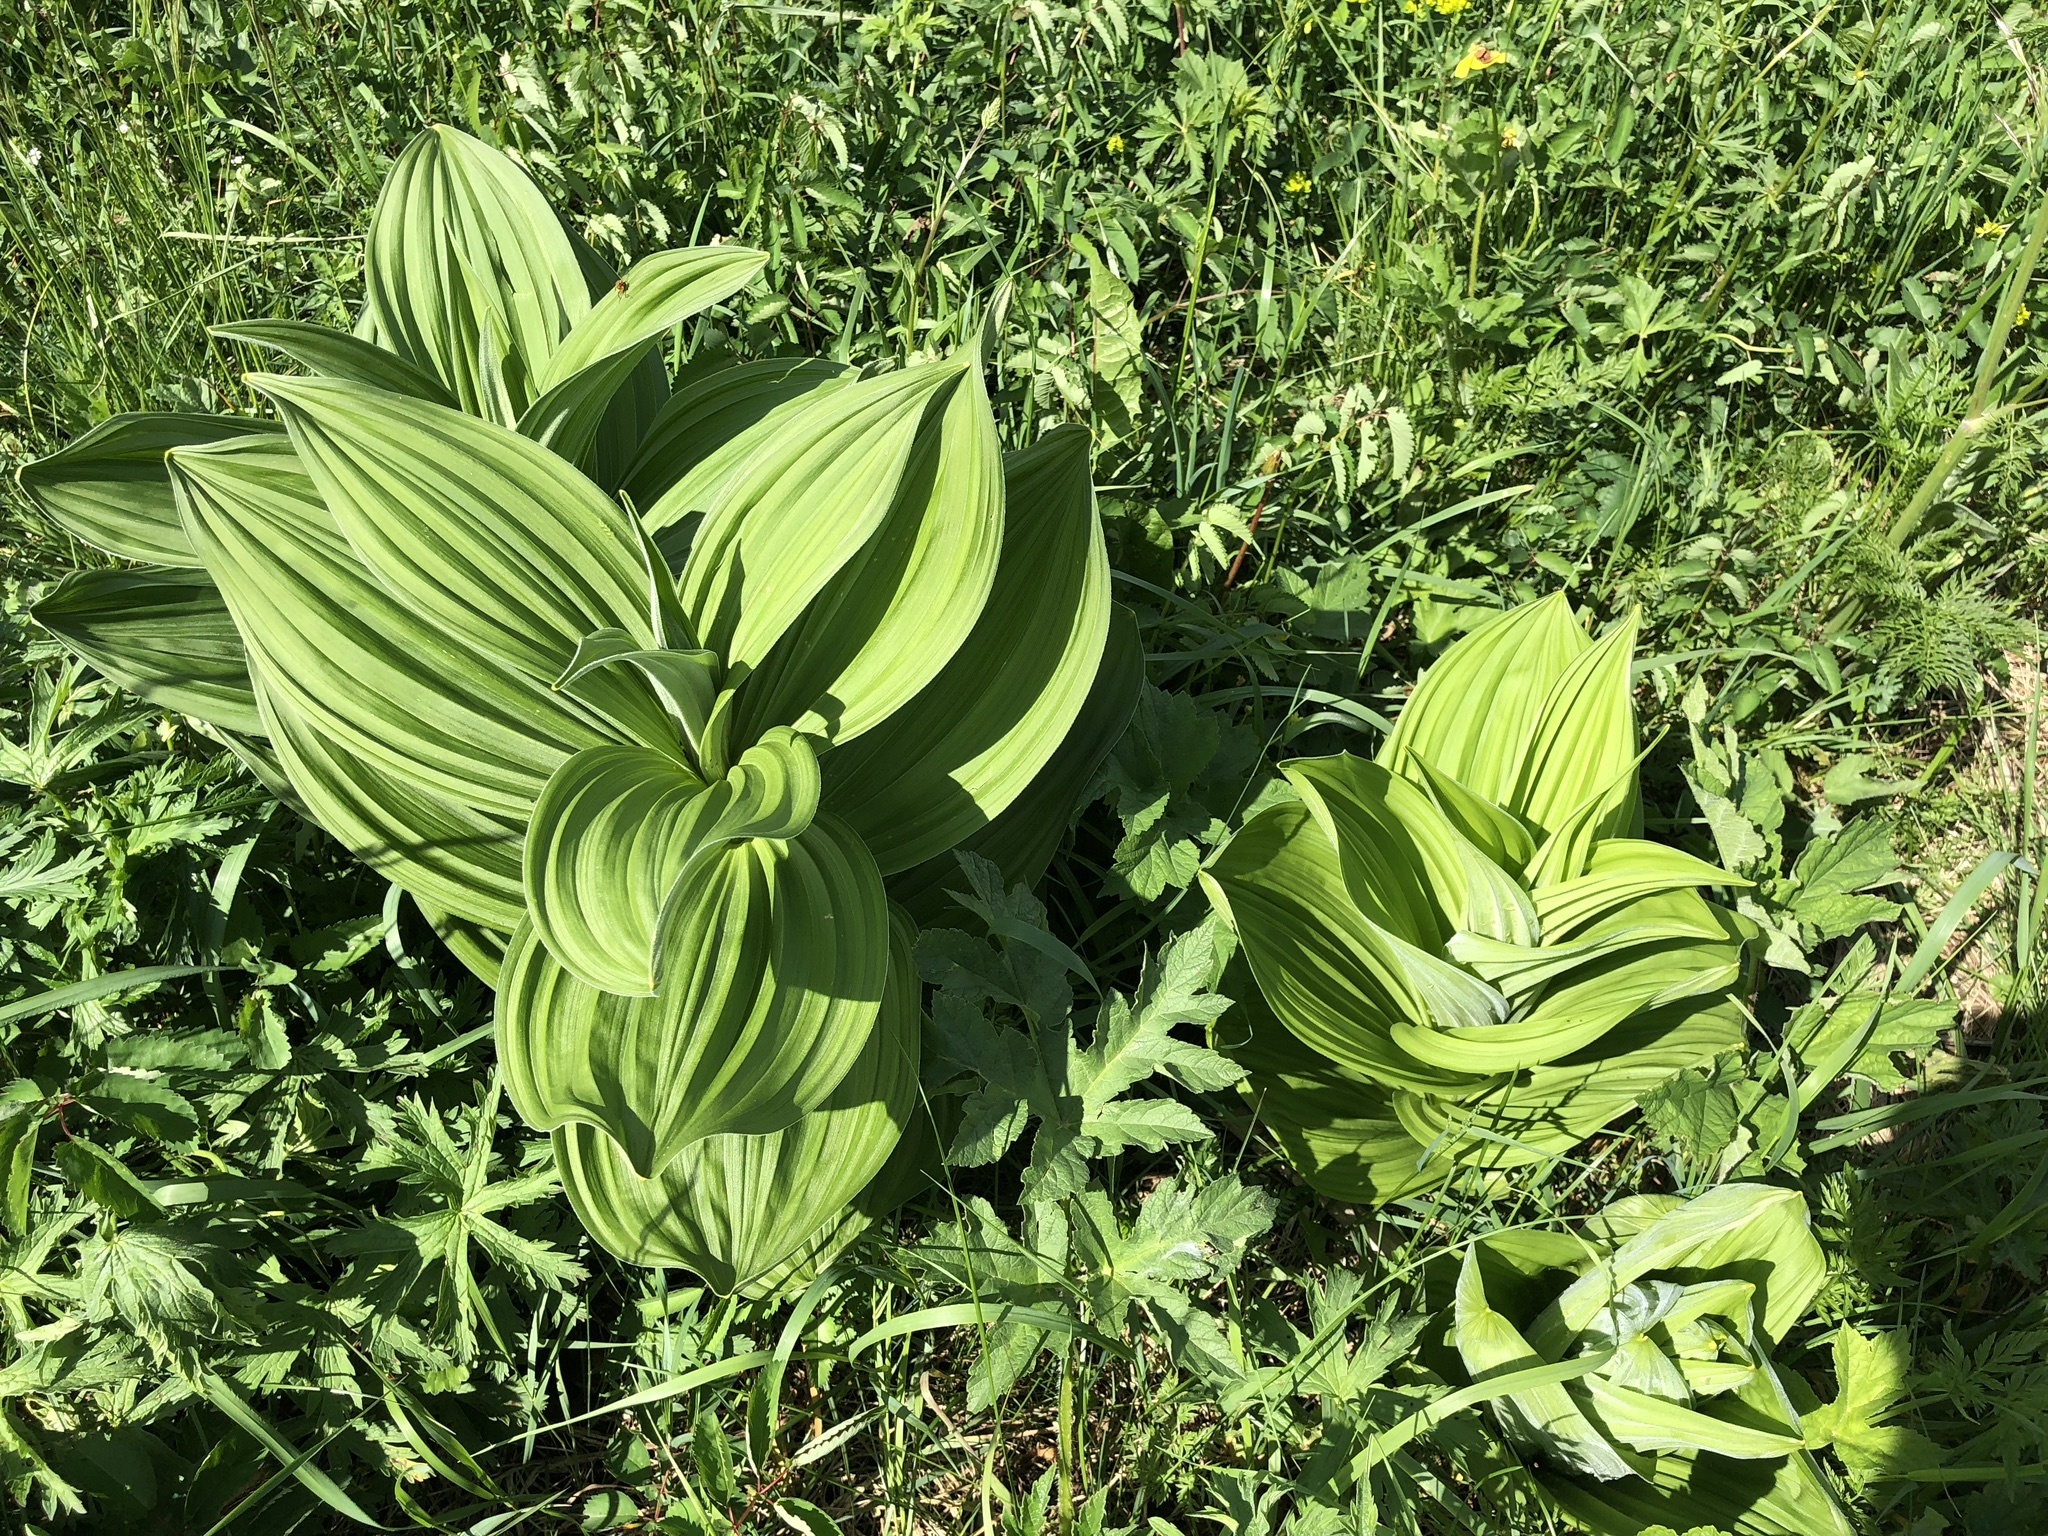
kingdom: Plantae
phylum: Tracheophyta
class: Liliopsida
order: Liliales
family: Melanthiaceae
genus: Veratrum
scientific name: Veratrum album
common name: White veratrum
